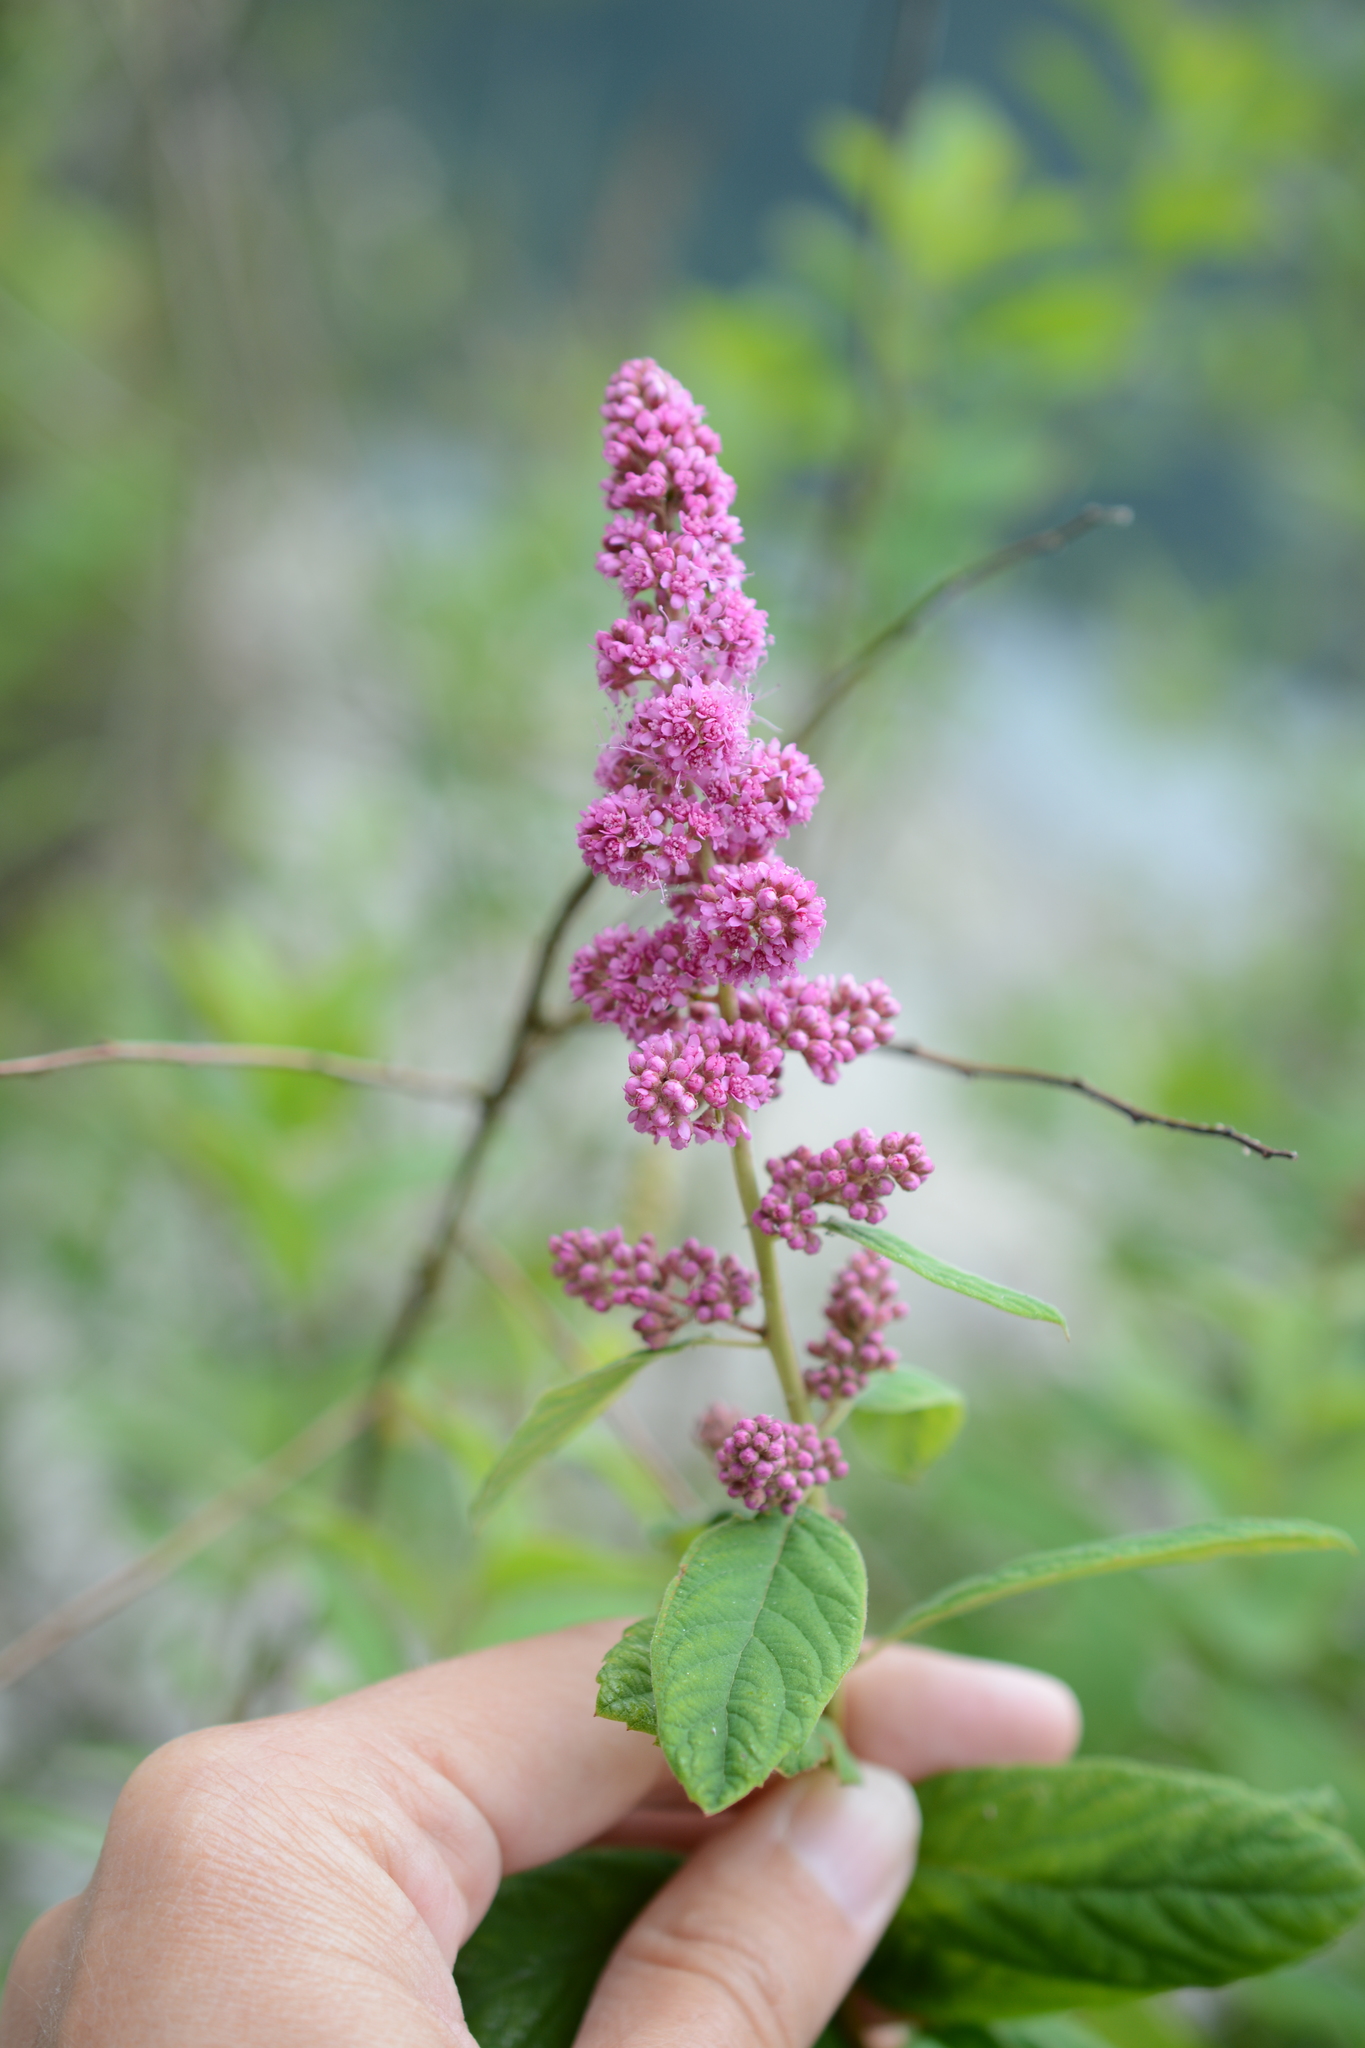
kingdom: Plantae
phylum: Tracheophyta
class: Magnoliopsida
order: Rosales
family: Rosaceae
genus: Spiraea
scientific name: Spiraea douglasii
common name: Steeplebush
